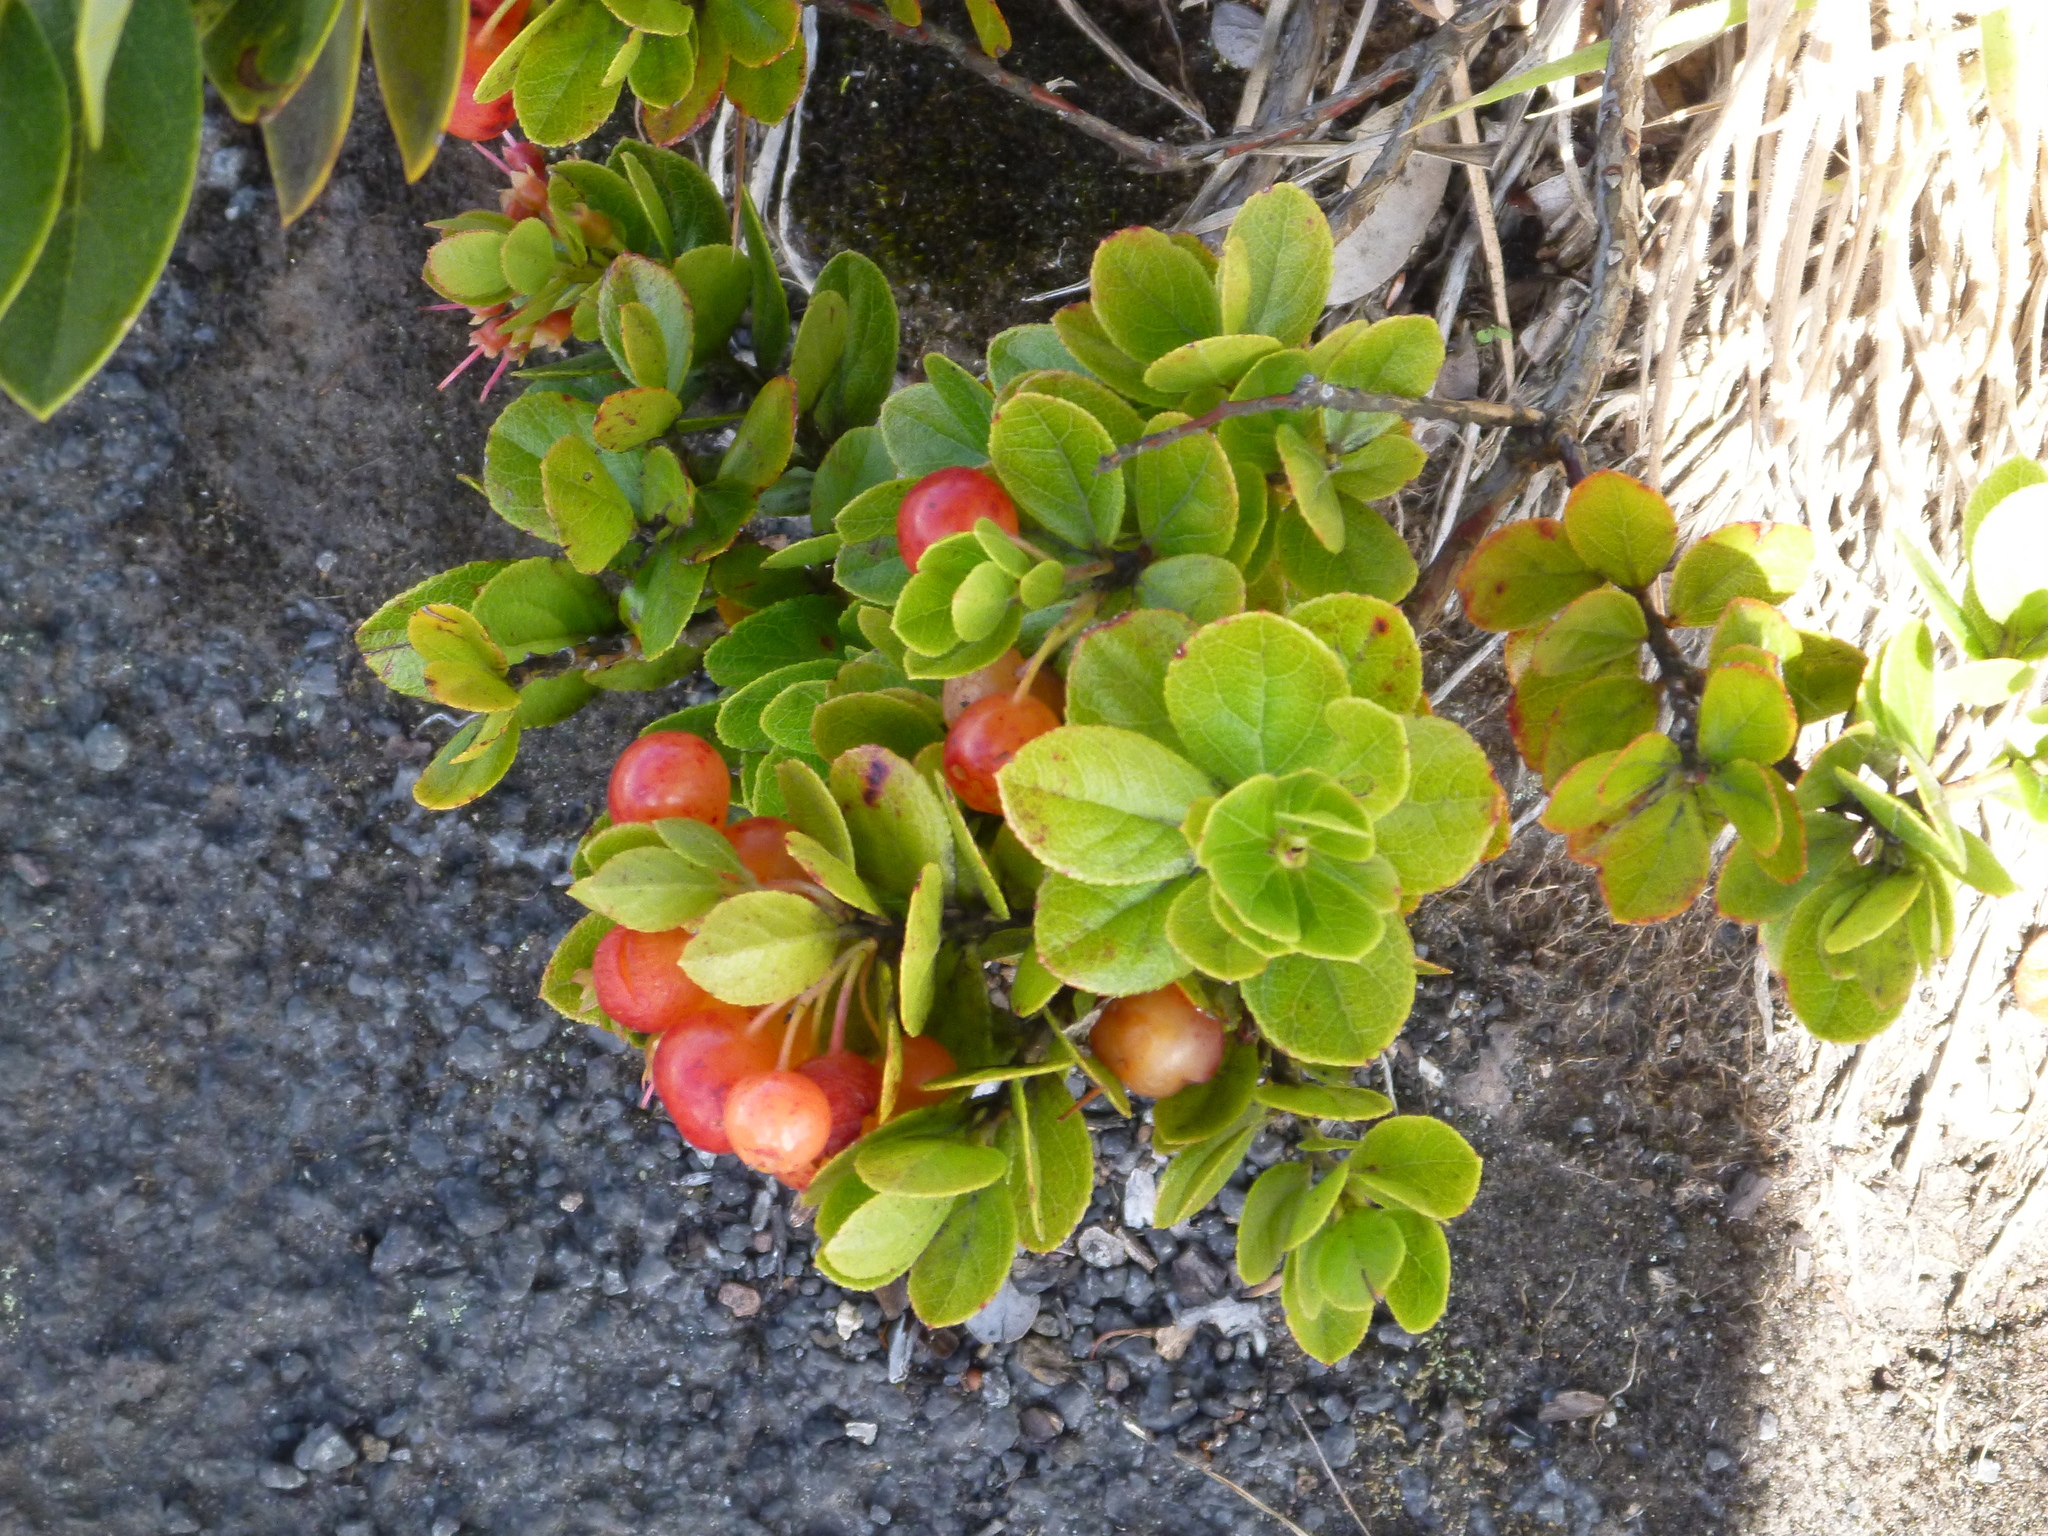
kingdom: Plantae
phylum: Tracheophyta
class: Magnoliopsida
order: Ericales
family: Ericaceae
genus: Vaccinium
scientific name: Vaccinium reticulatum
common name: Ohelo
